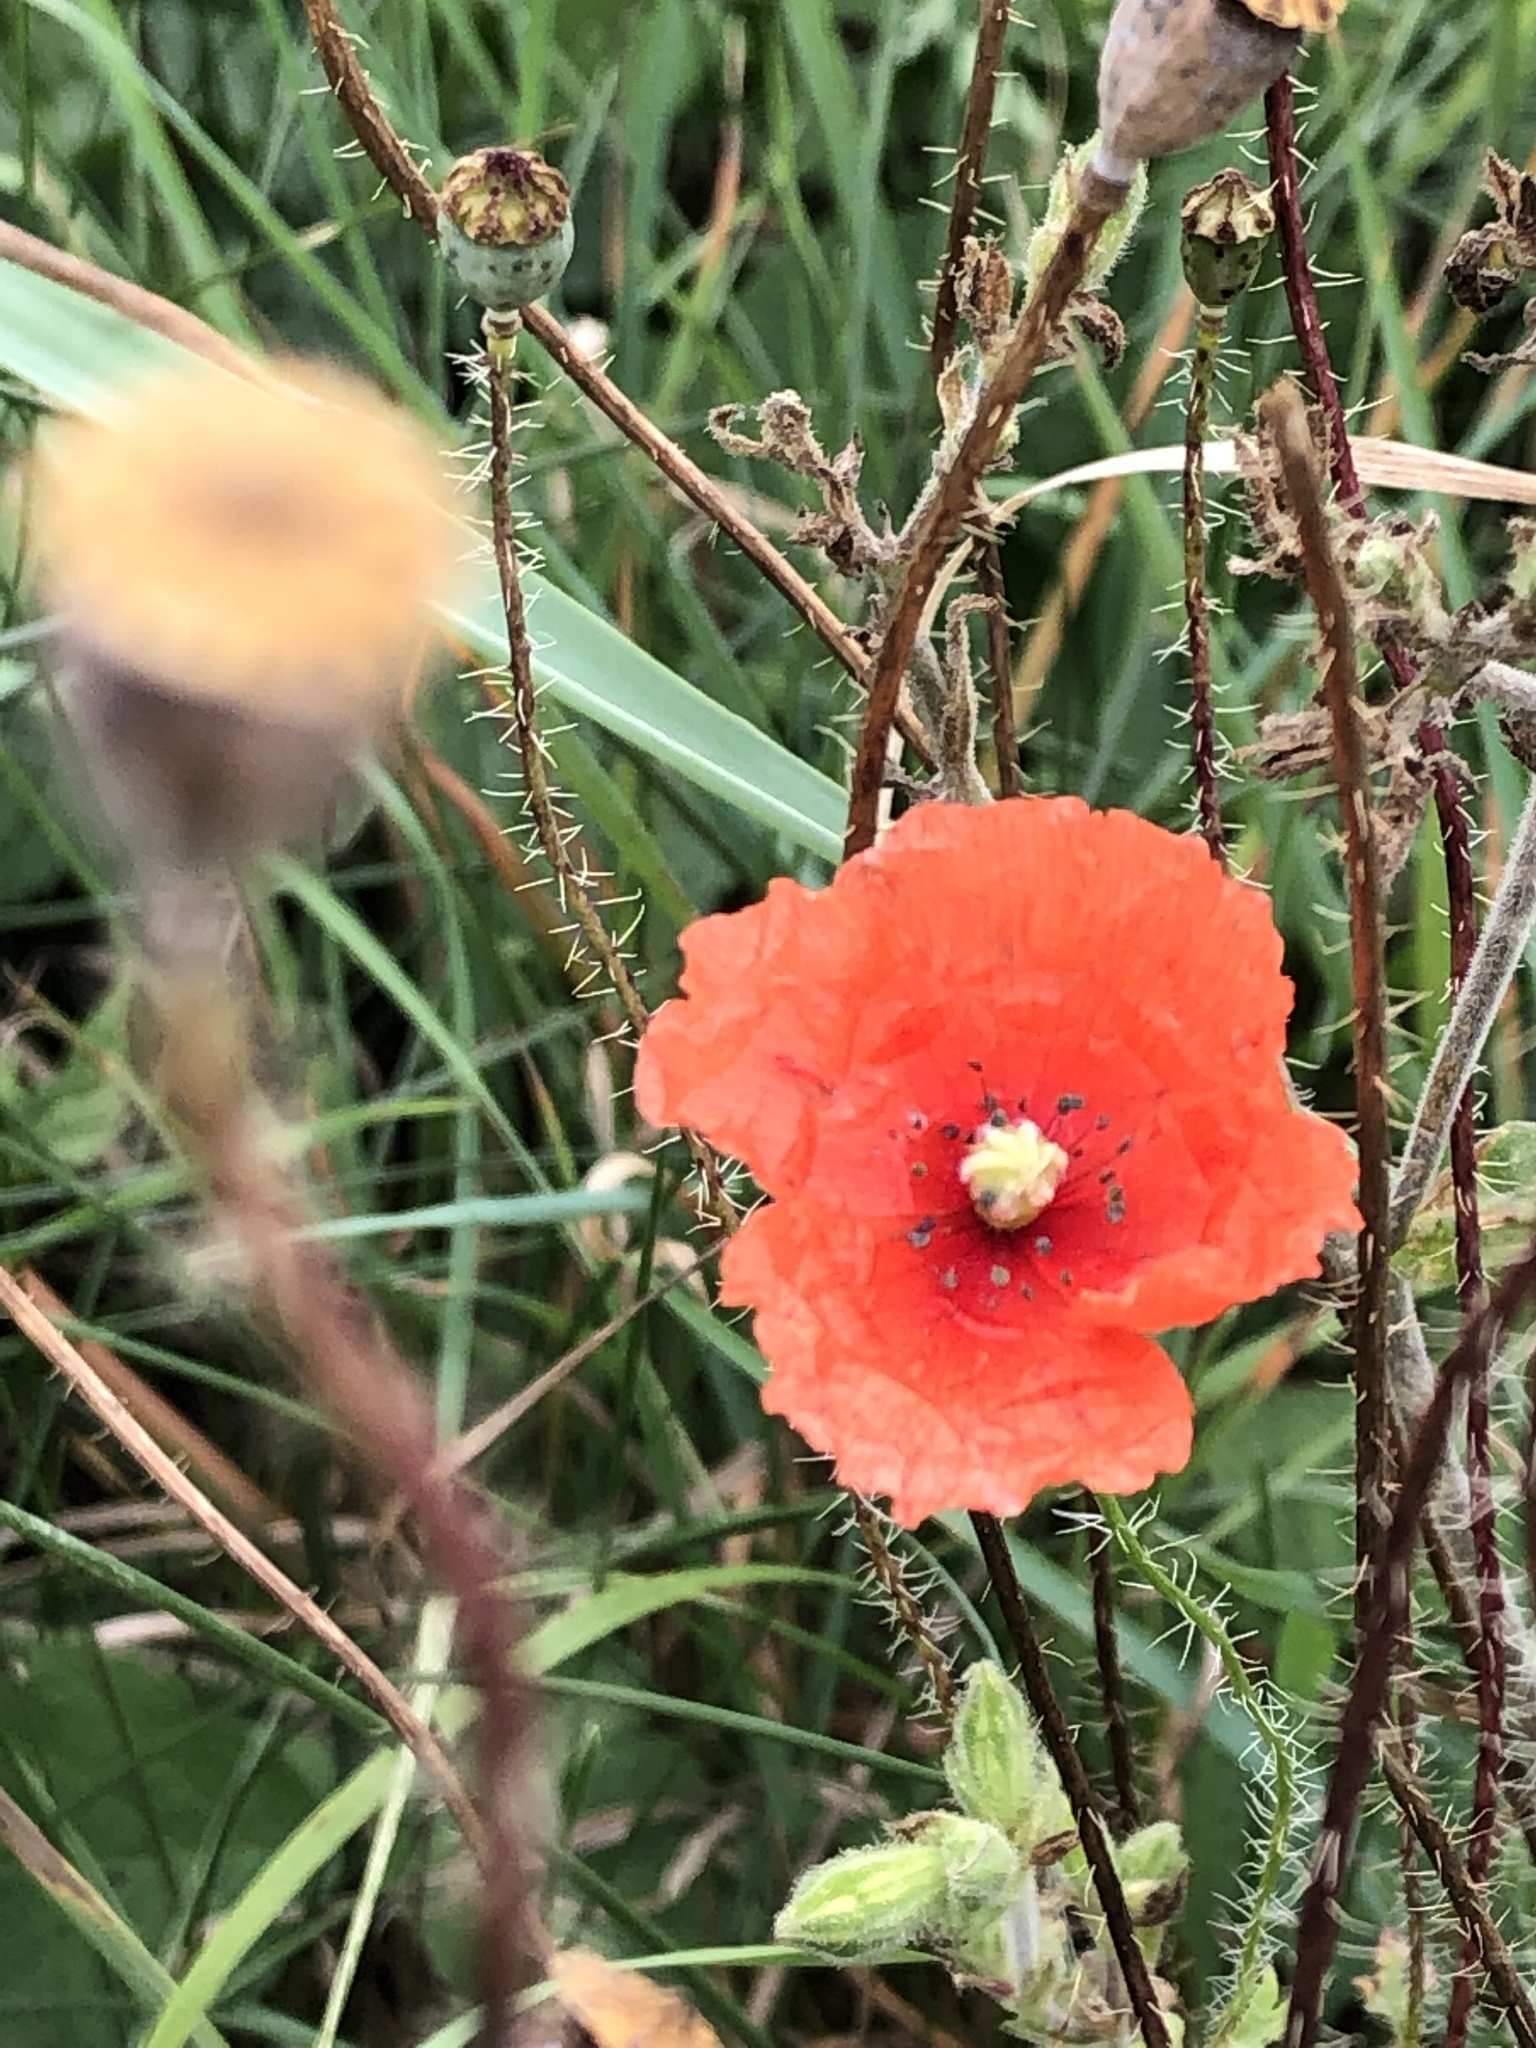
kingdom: Plantae
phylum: Tracheophyta
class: Magnoliopsida
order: Ranunculales
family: Papaveraceae
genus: Papaver
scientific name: Papaver rhoeas
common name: Corn poppy
